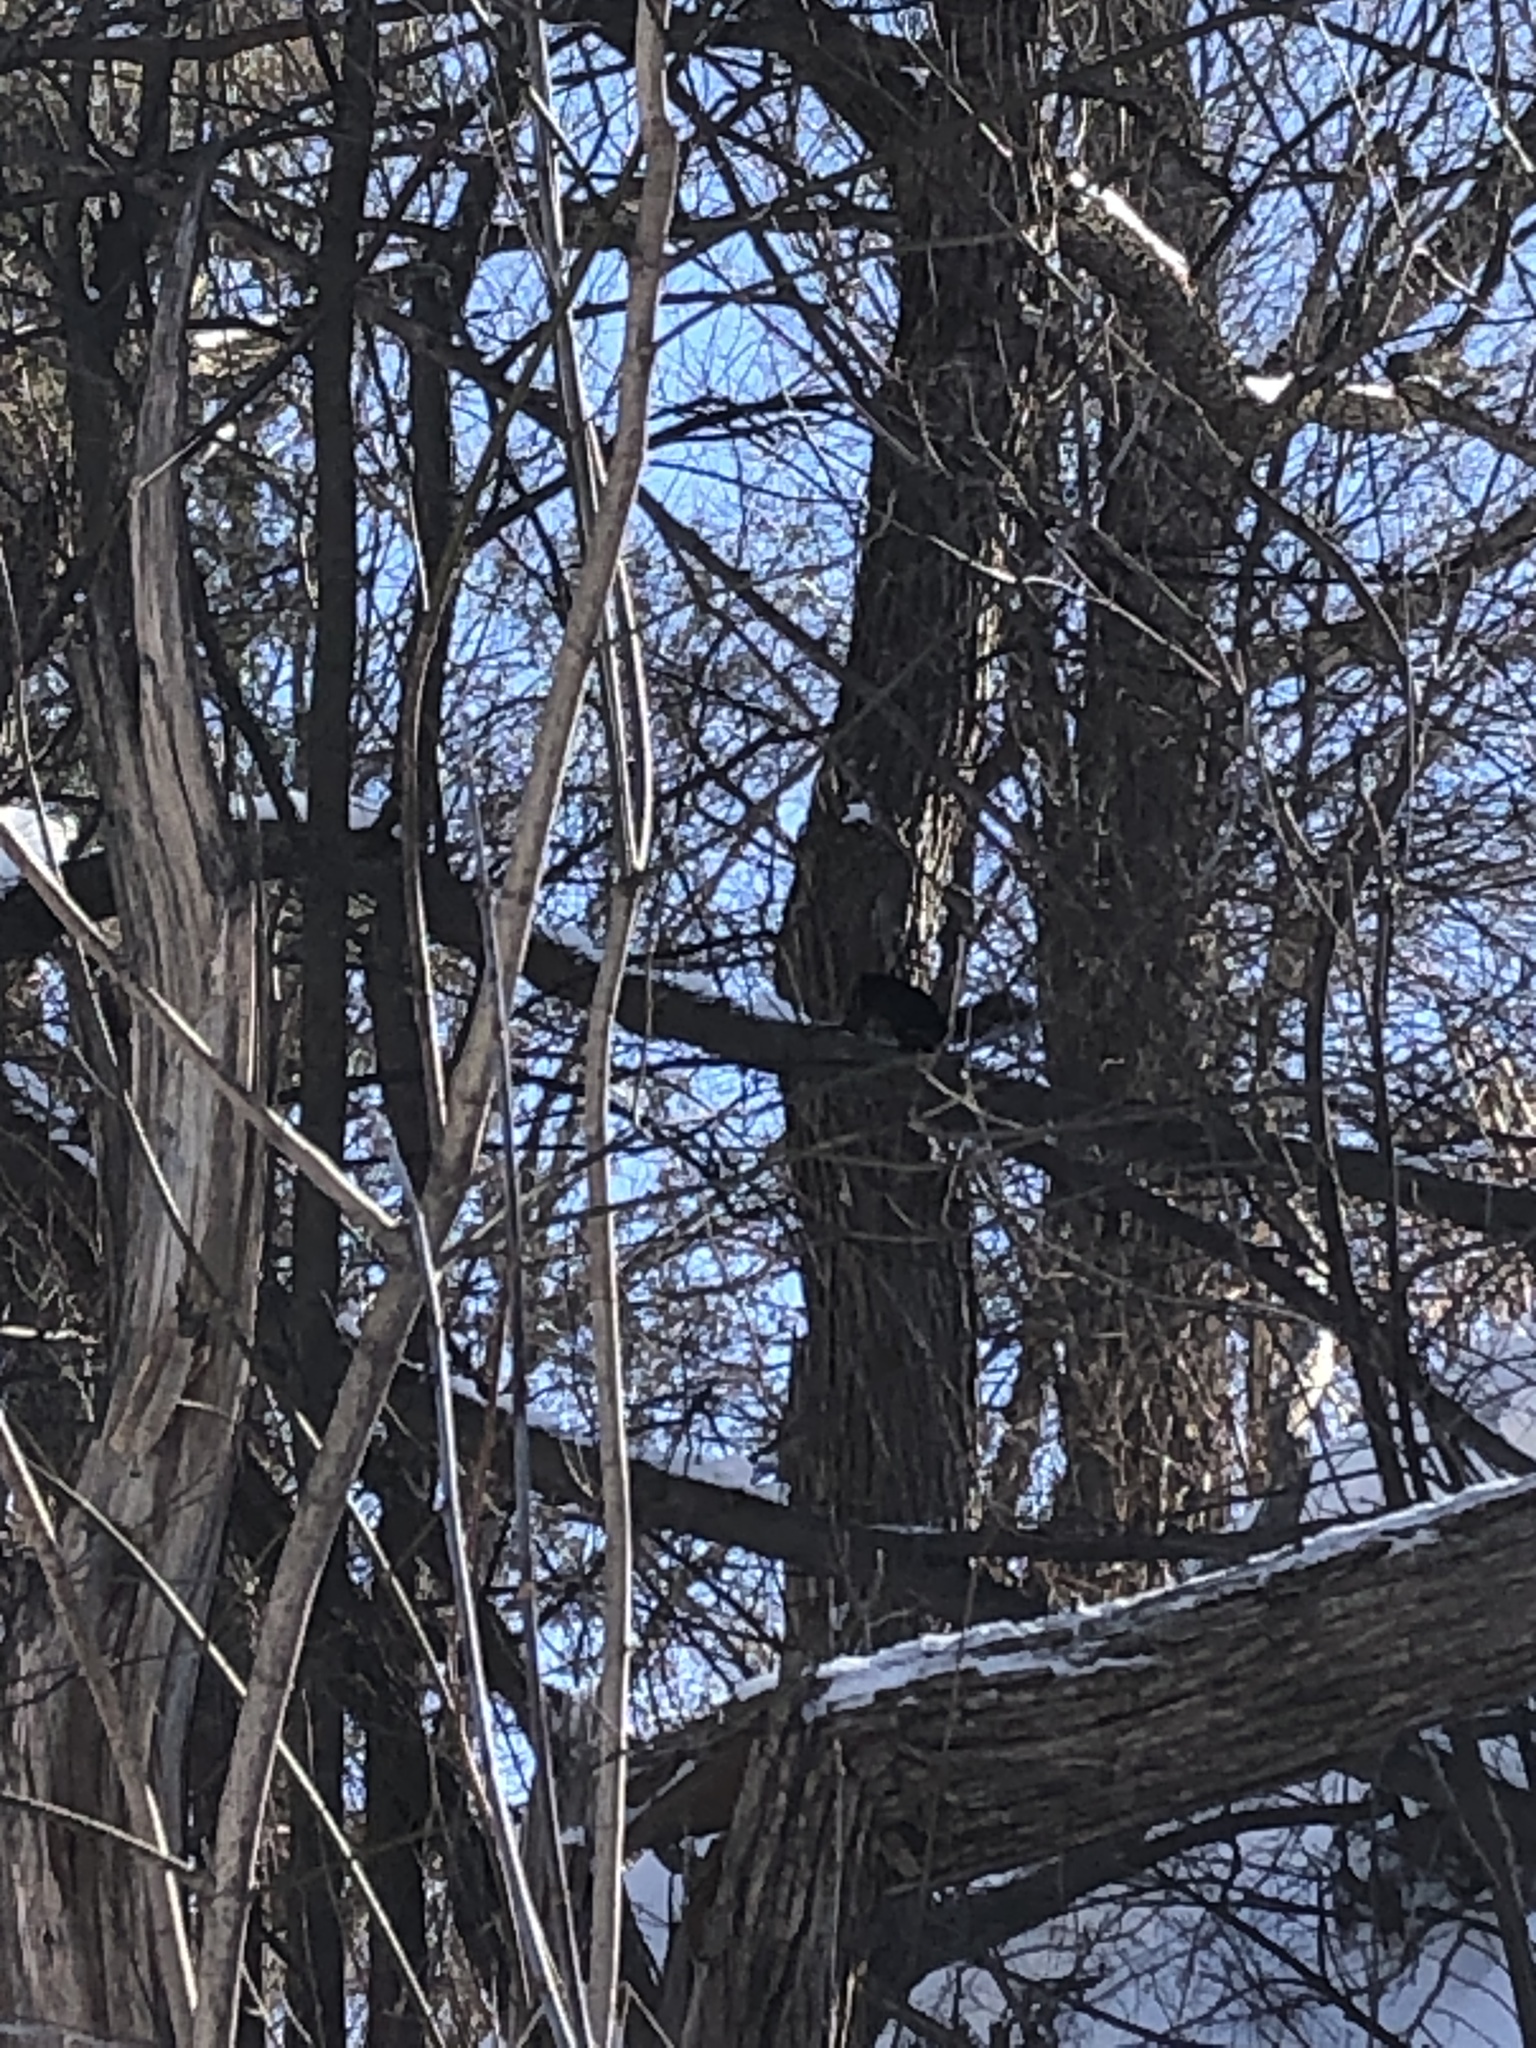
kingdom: Animalia
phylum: Chordata
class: Mammalia
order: Rodentia
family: Sciuridae
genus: Sciurus
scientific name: Sciurus carolinensis
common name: Eastern gray squirrel
